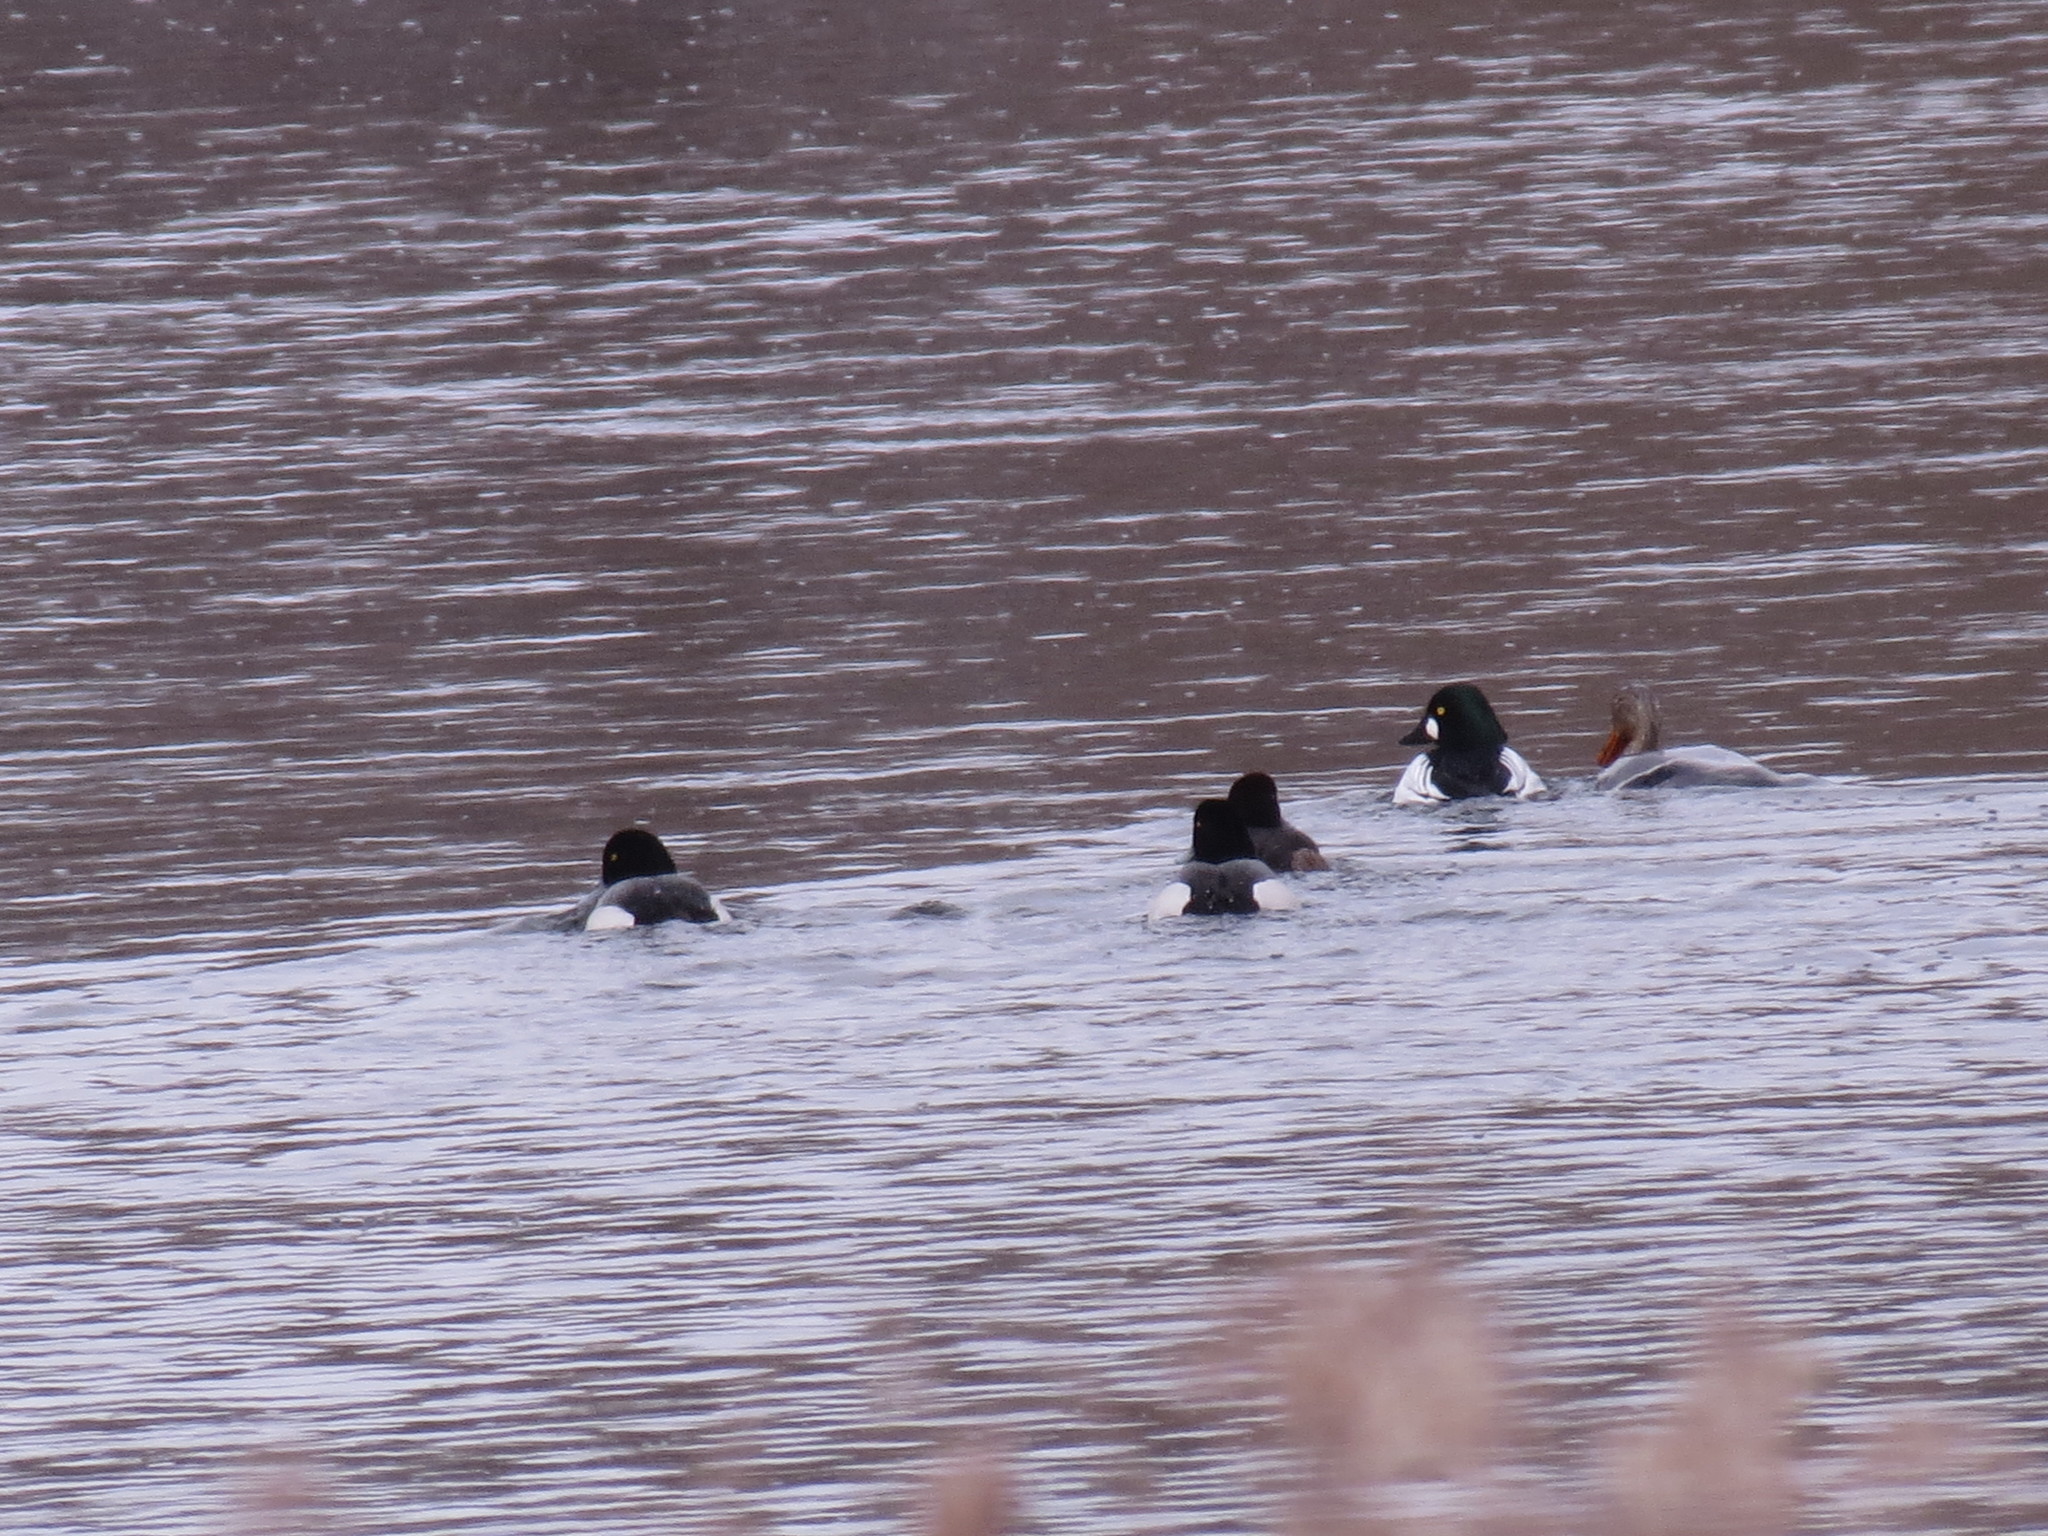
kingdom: Animalia
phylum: Chordata
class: Aves
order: Anseriformes
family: Anatidae
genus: Bucephala
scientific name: Bucephala clangula
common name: Common goldeneye
